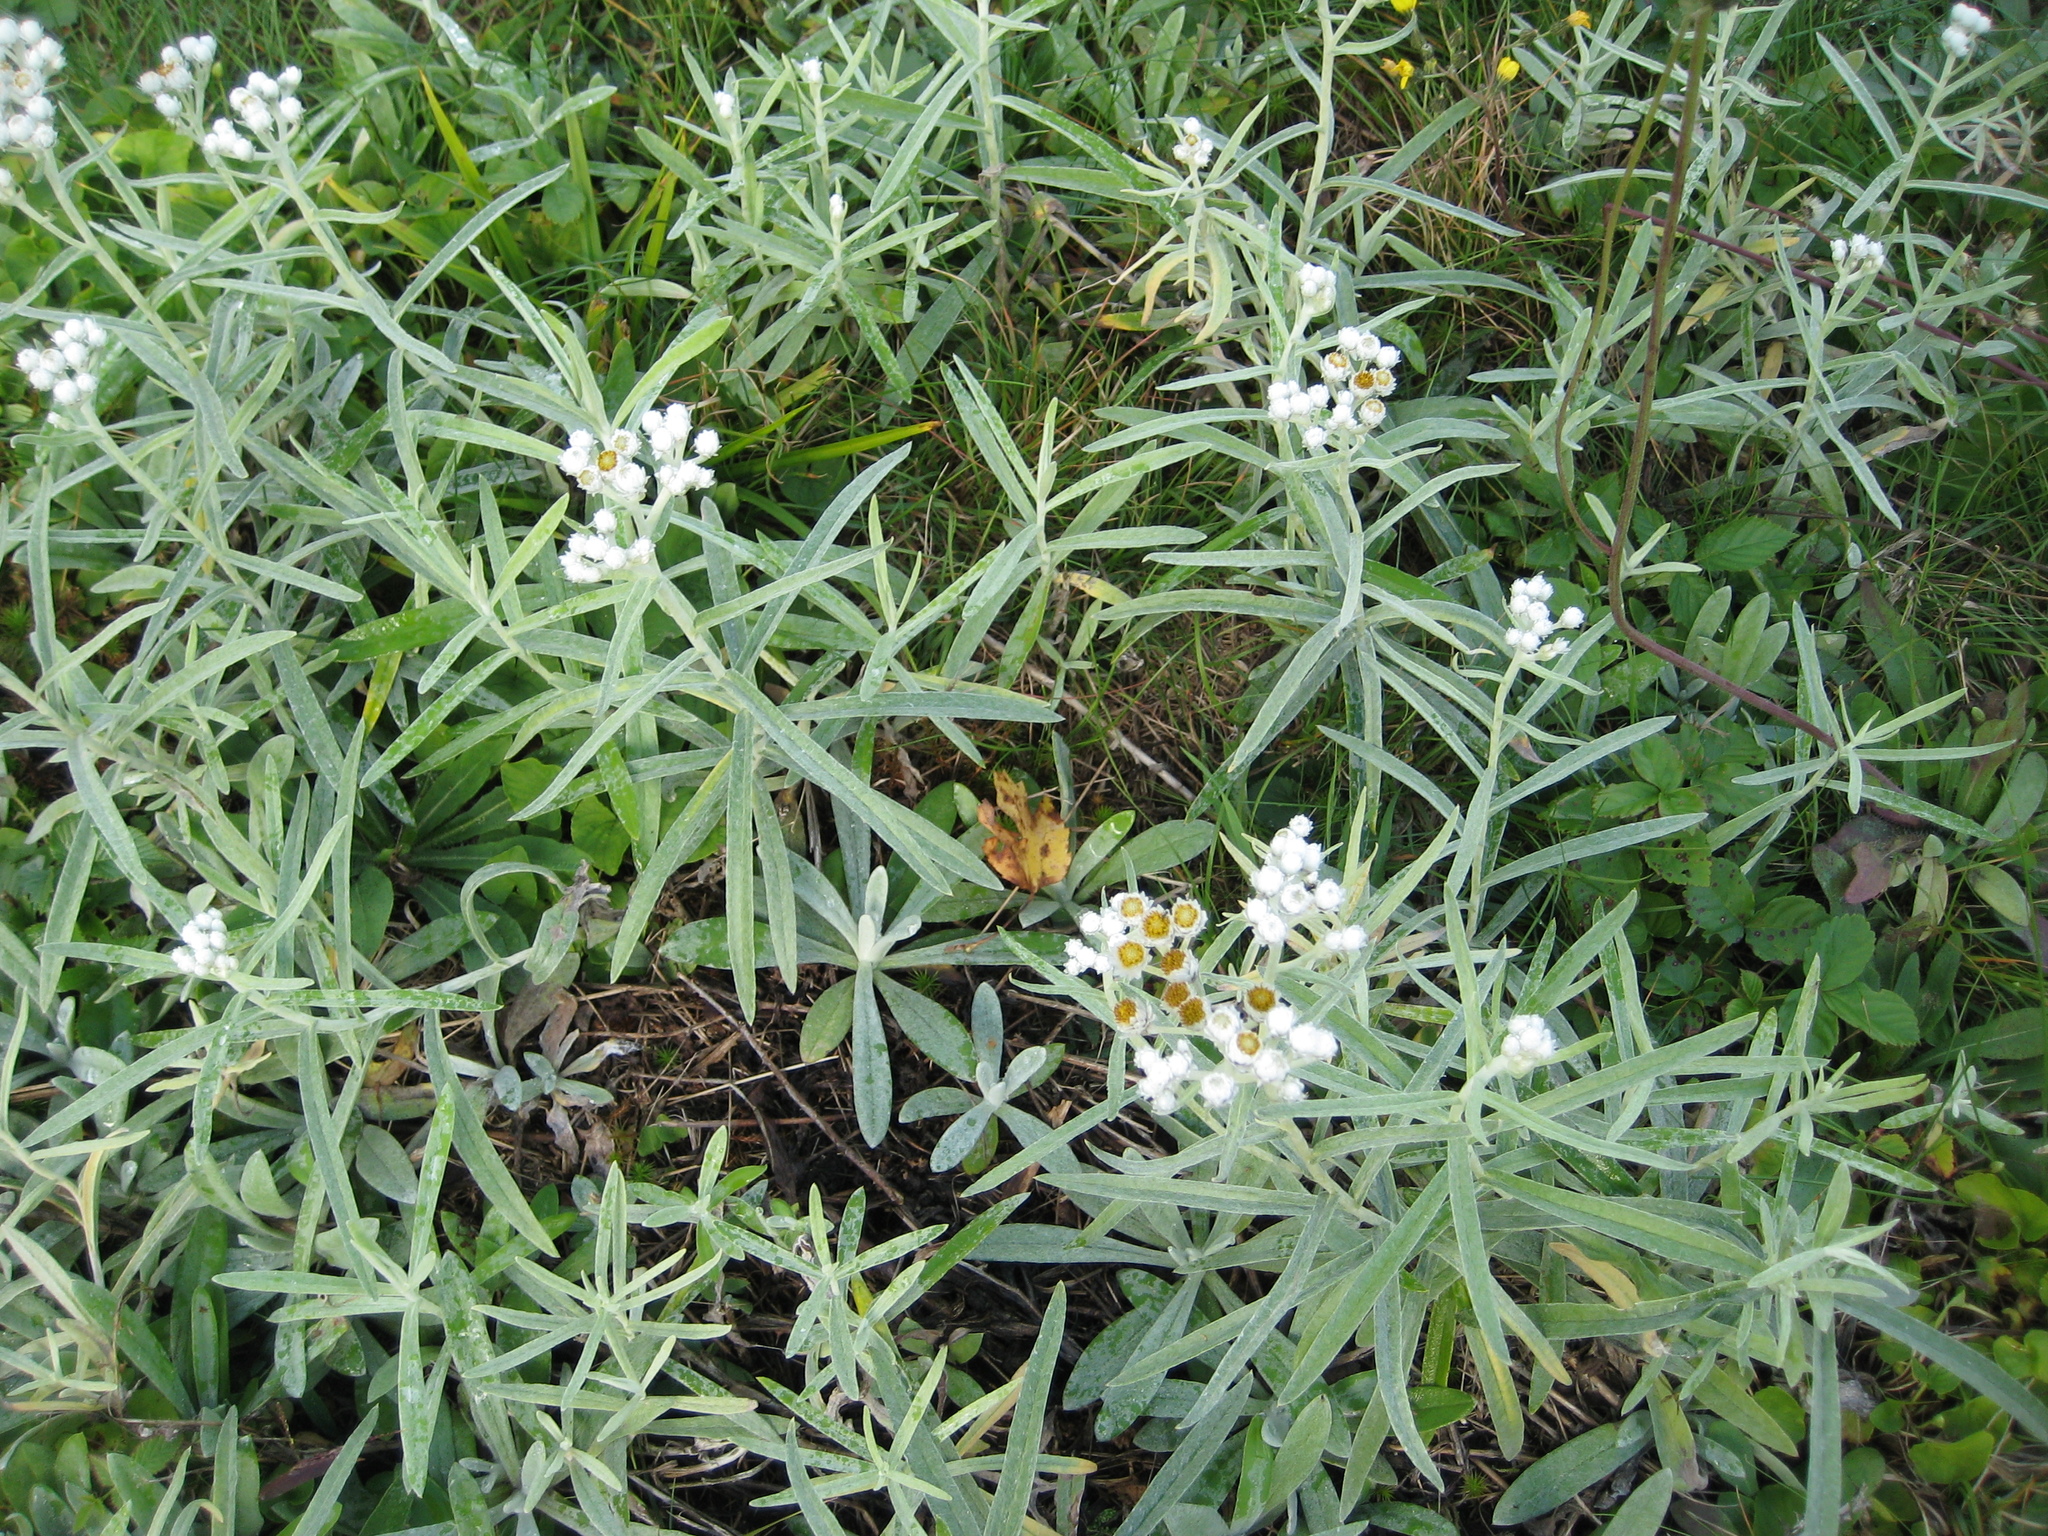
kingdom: Plantae
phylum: Tracheophyta
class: Magnoliopsida
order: Rosales
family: Rosaceae
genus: Fragaria
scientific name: Fragaria
